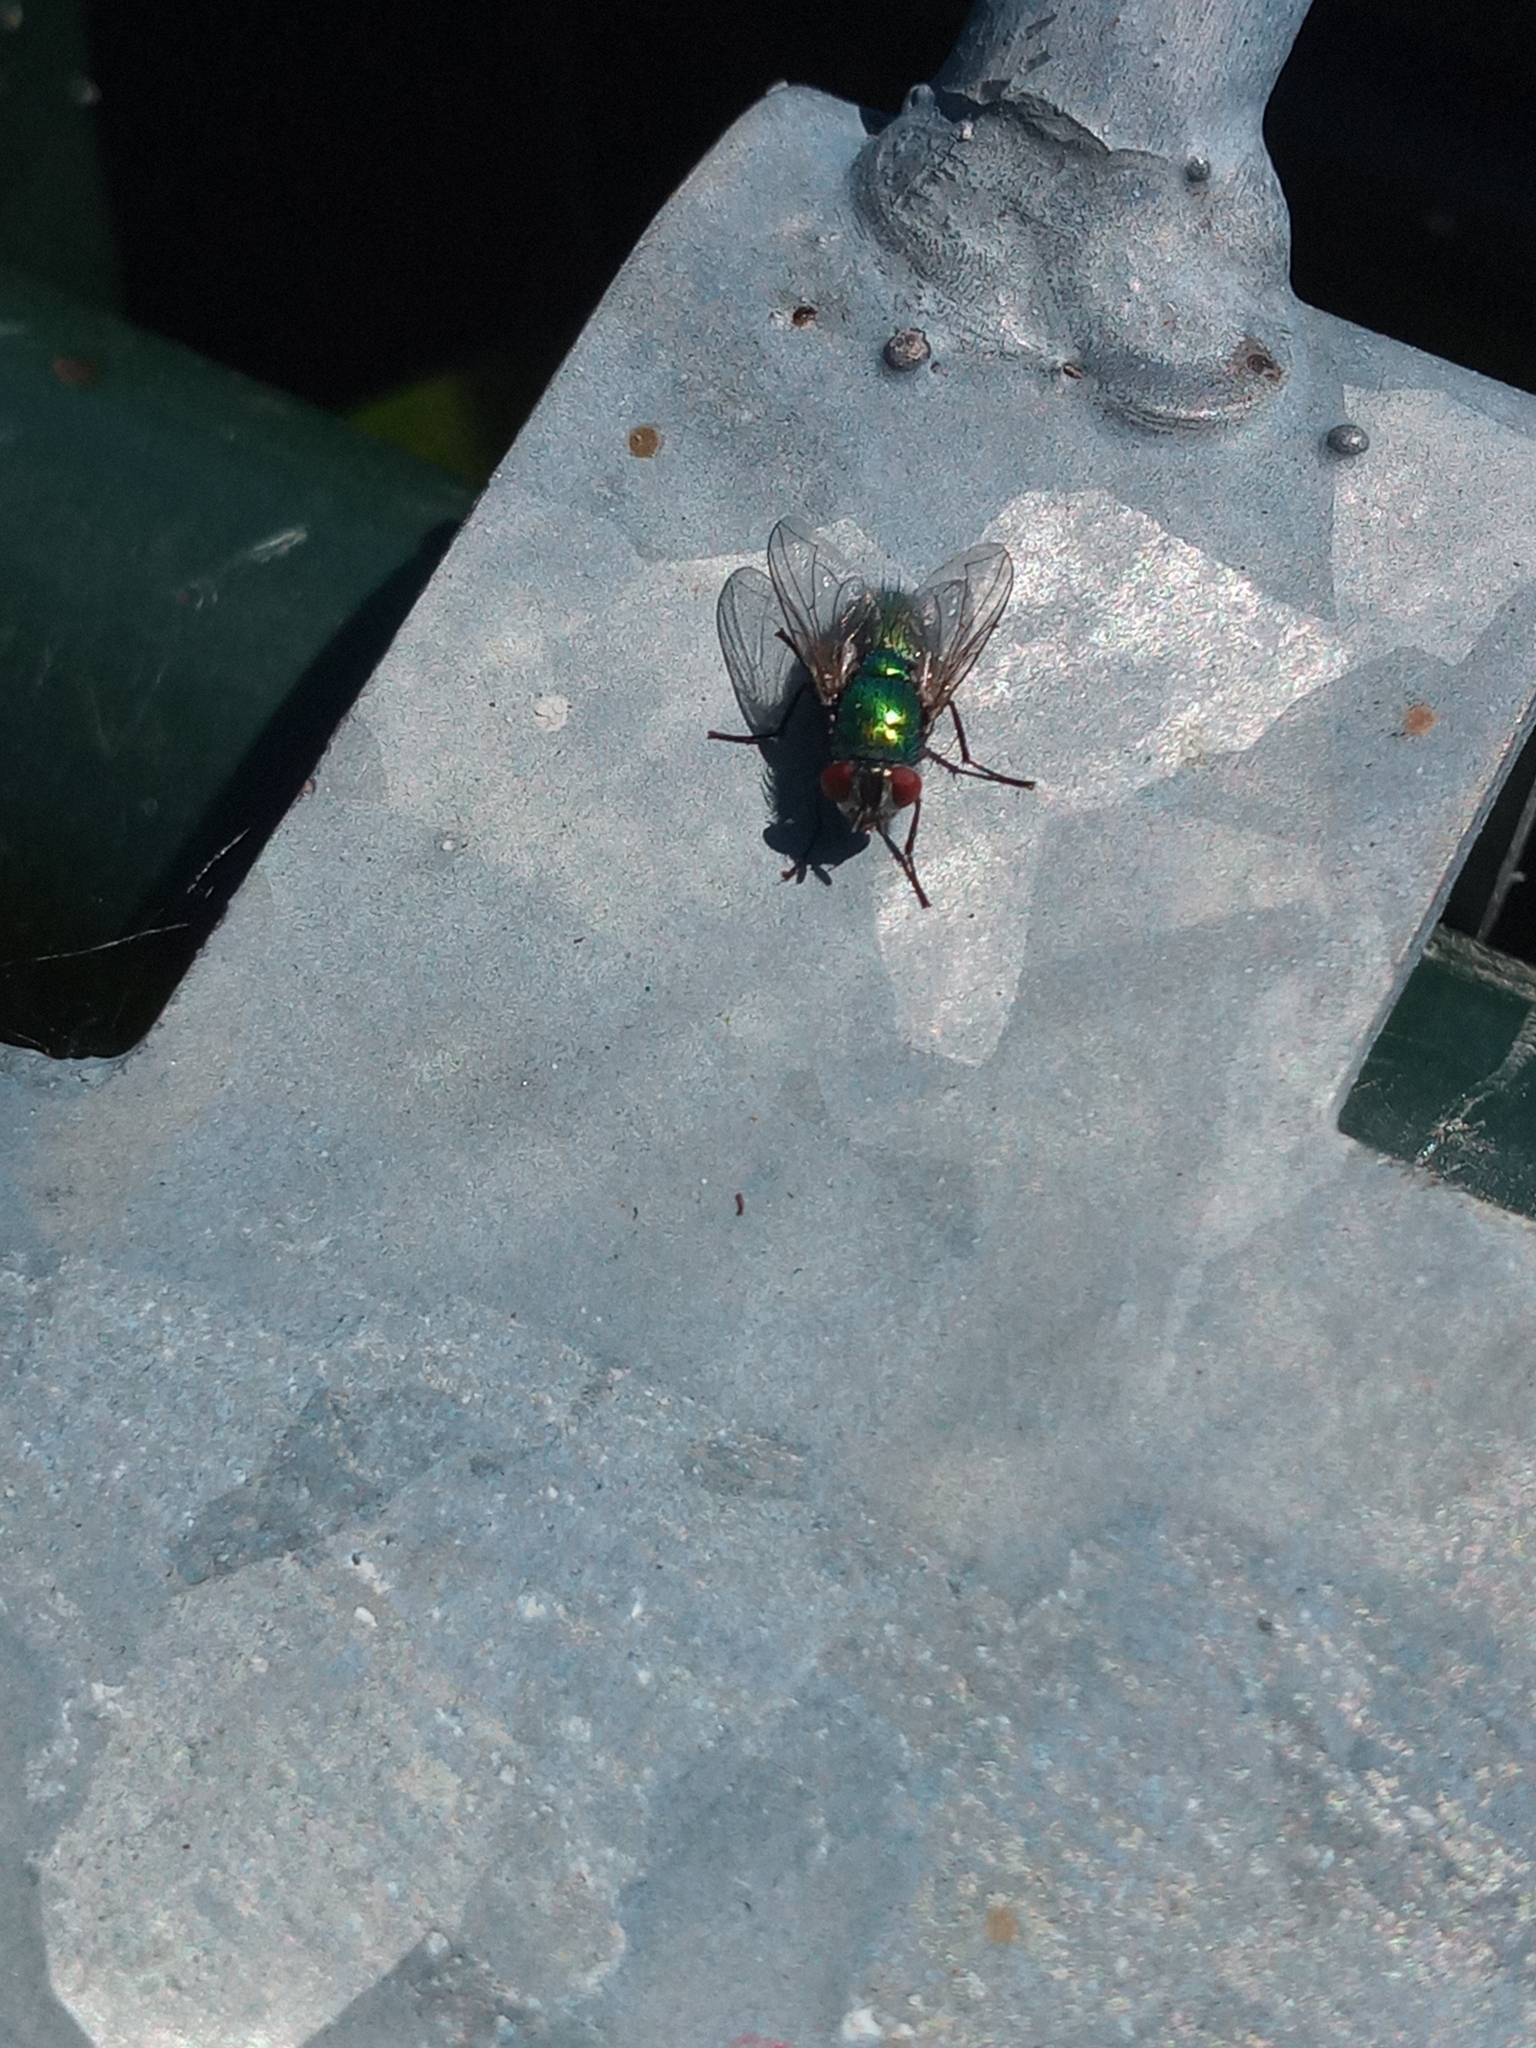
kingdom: Animalia
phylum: Arthropoda
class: Insecta
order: Diptera
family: Calliphoridae
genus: Lucilia
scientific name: Lucilia
